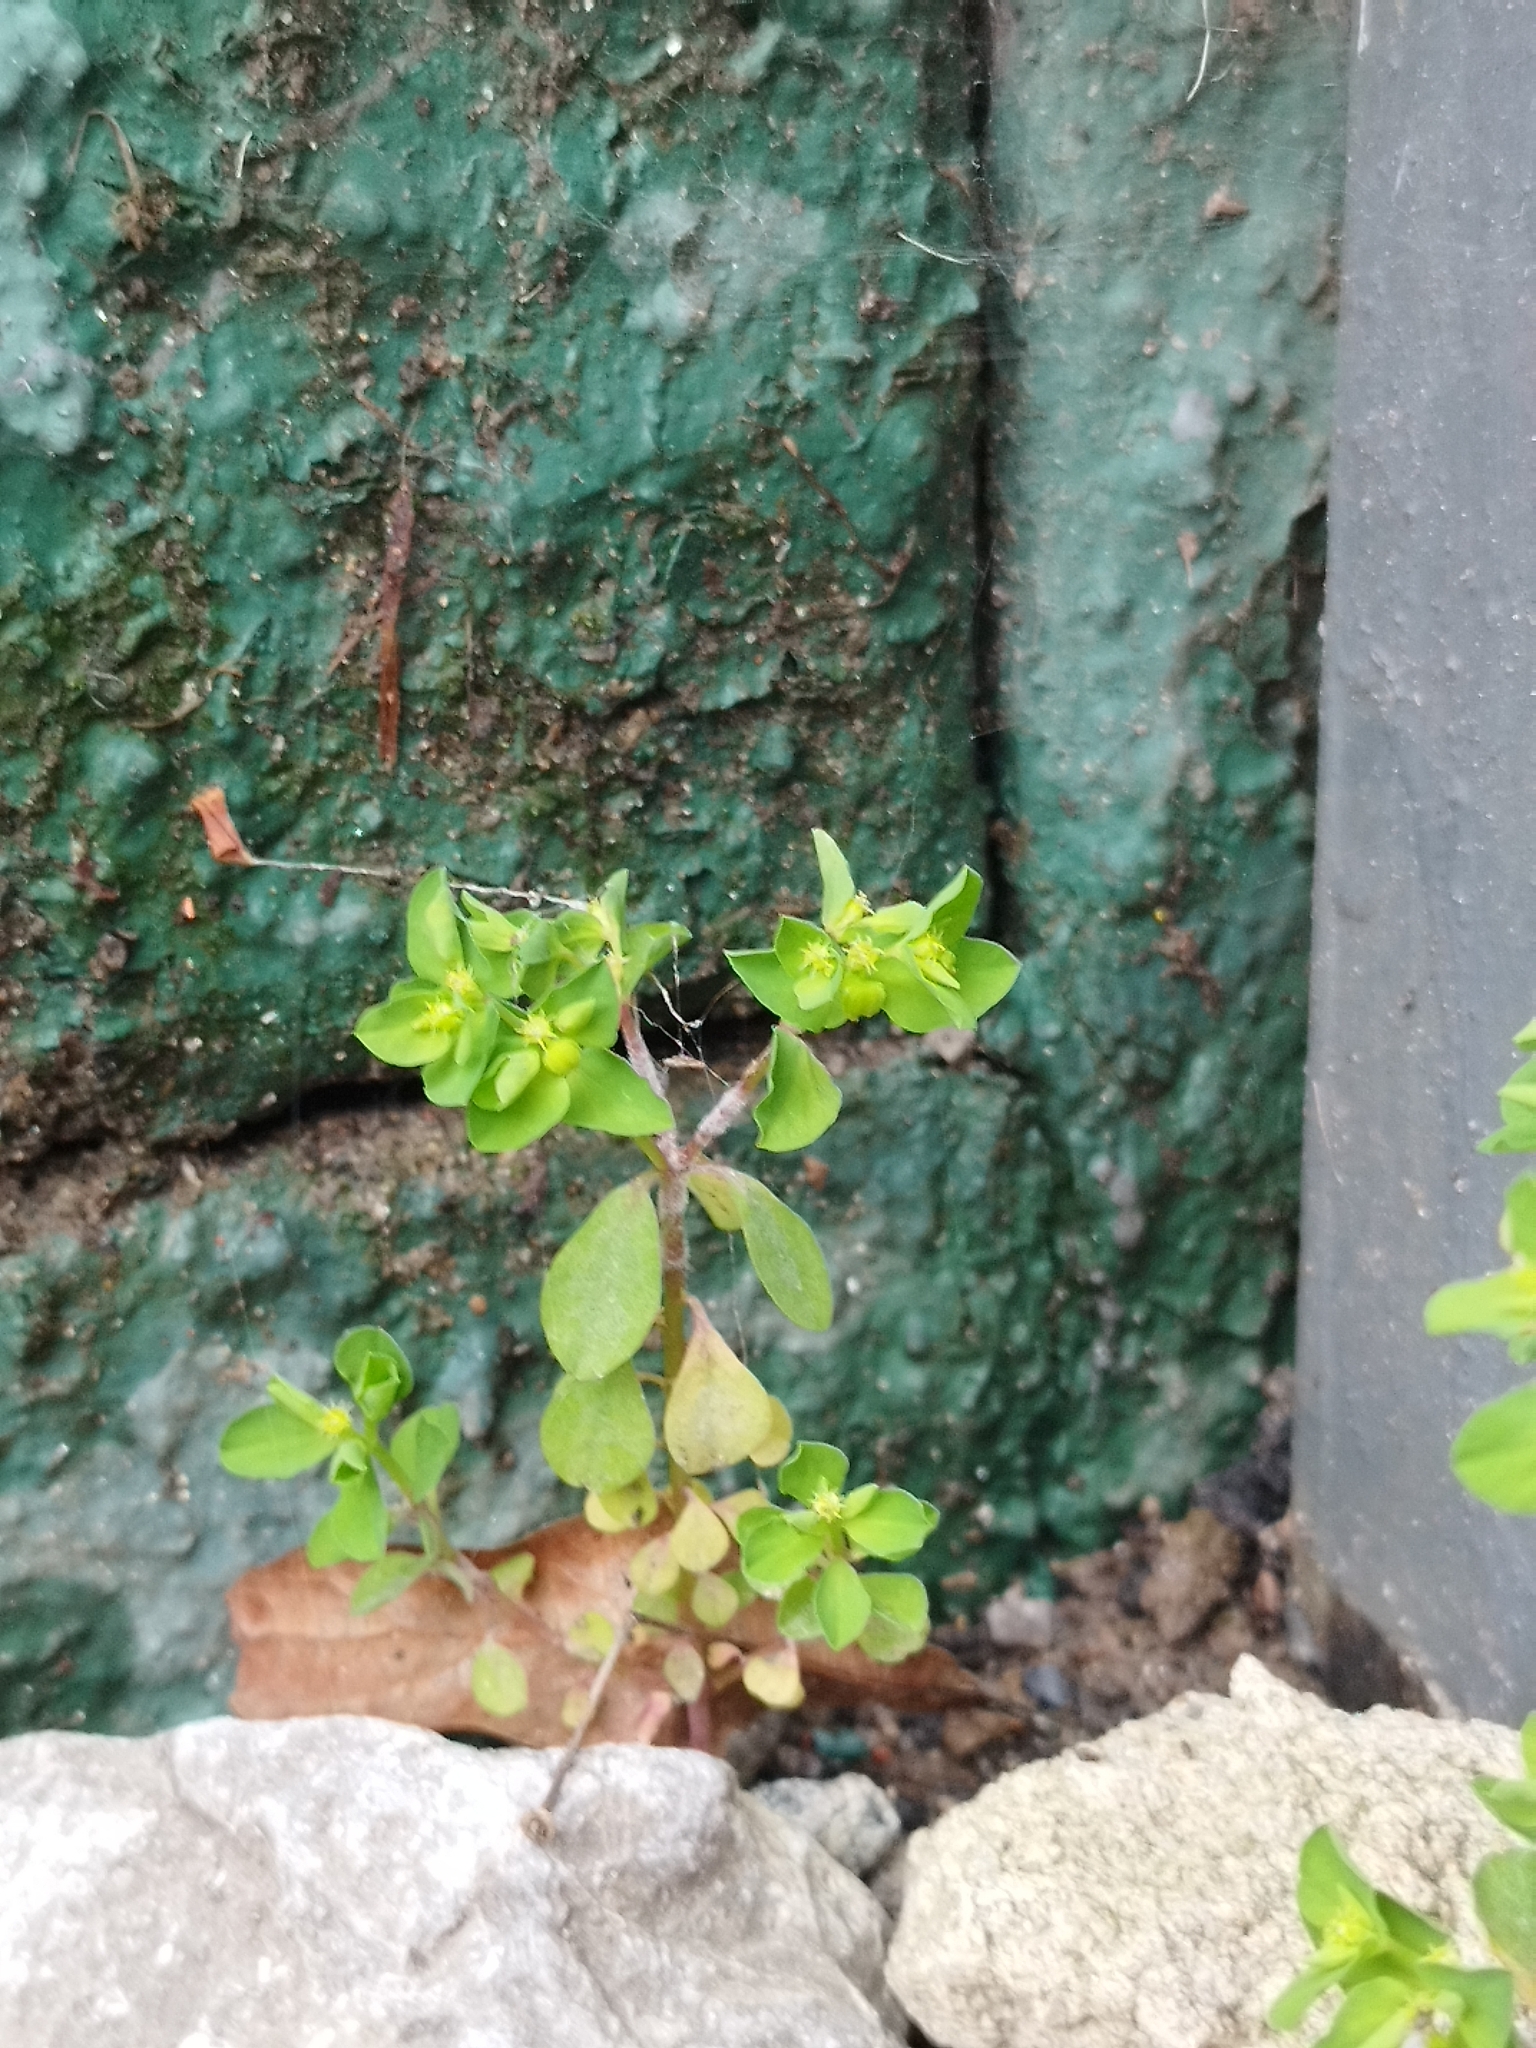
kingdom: Plantae
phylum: Tracheophyta
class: Magnoliopsida
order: Malpighiales
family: Euphorbiaceae
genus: Euphorbia
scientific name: Euphorbia peplus
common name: Petty spurge
